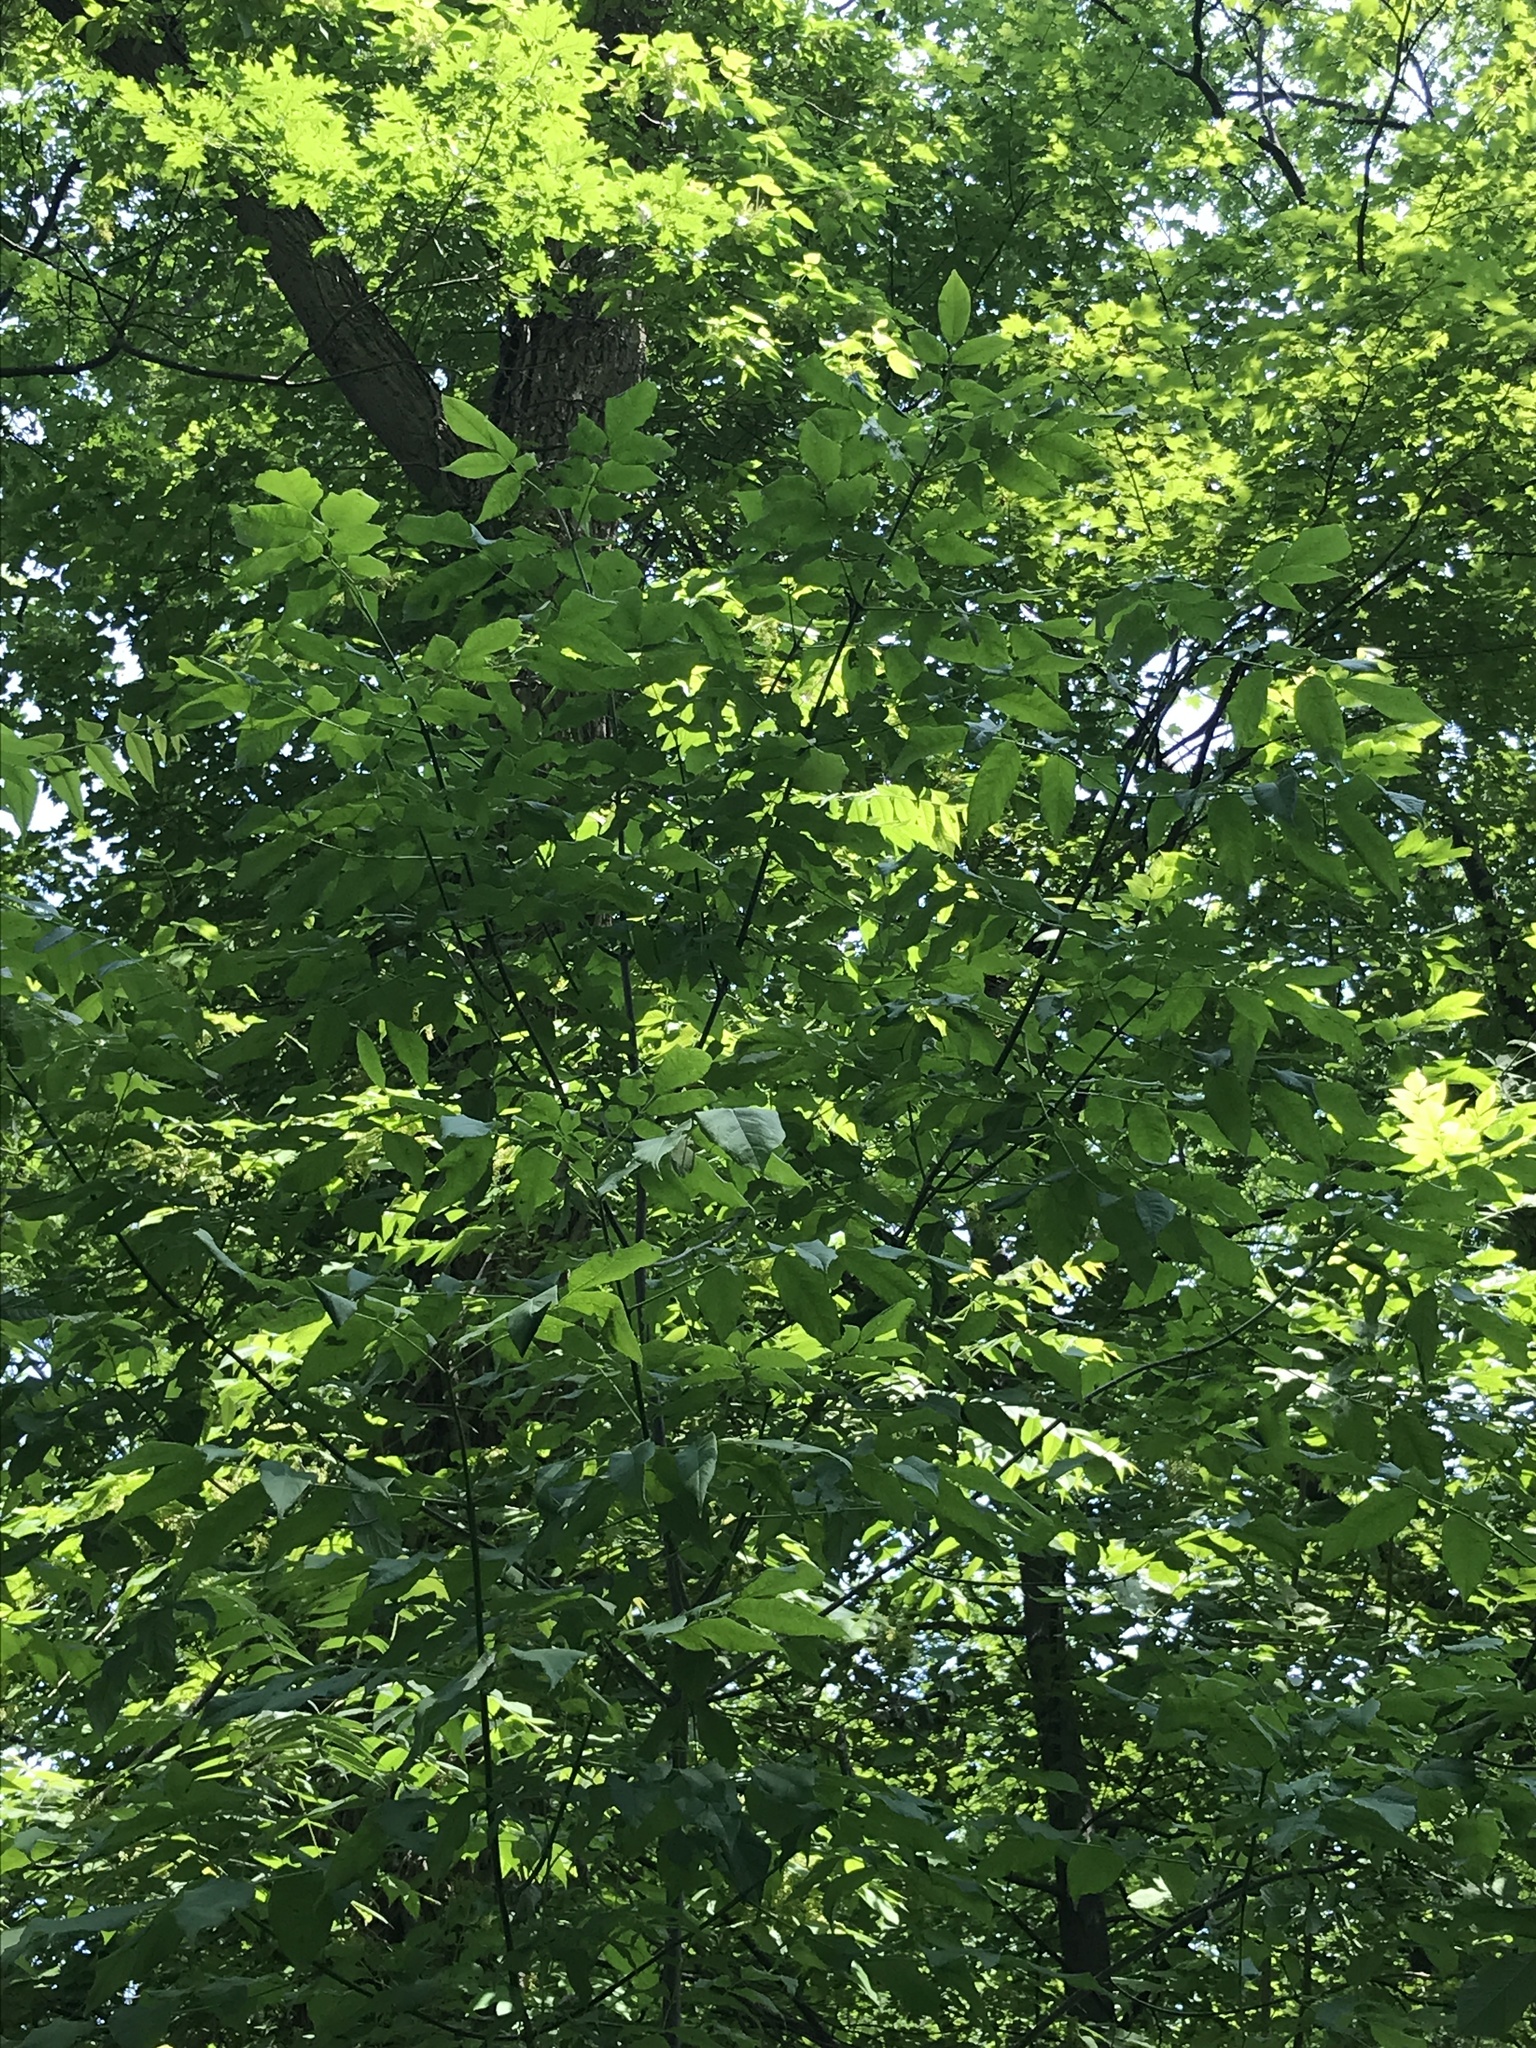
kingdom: Plantae
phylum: Tracheophyta
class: Magnoliopsida
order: Lamiales
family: Oleaceae
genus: Fraxinus
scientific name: Fraxinus pennsylvanica
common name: Green ash
